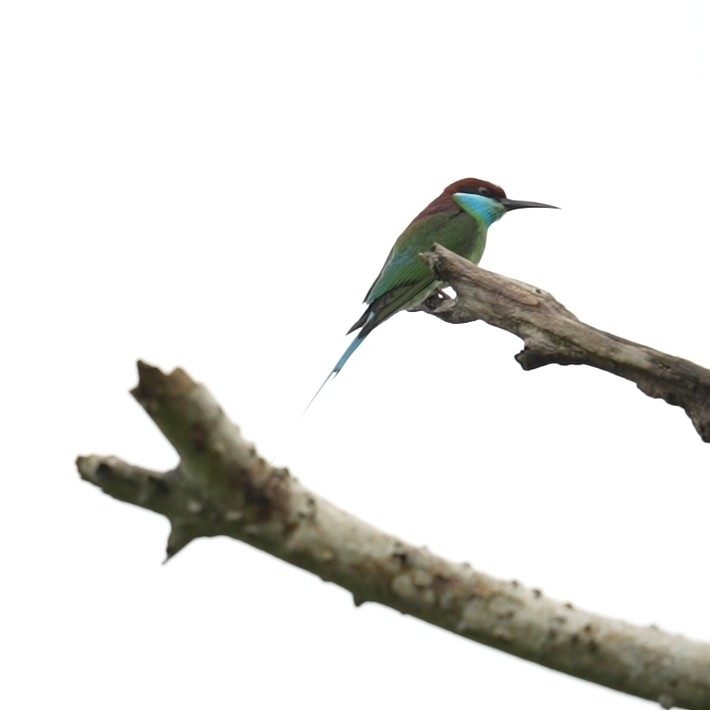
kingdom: Animalia
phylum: Chordata
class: Aves
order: Coraciiformes
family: Meropidae
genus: Merops
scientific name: Merops viridis
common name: Blue-throated bee-eater
